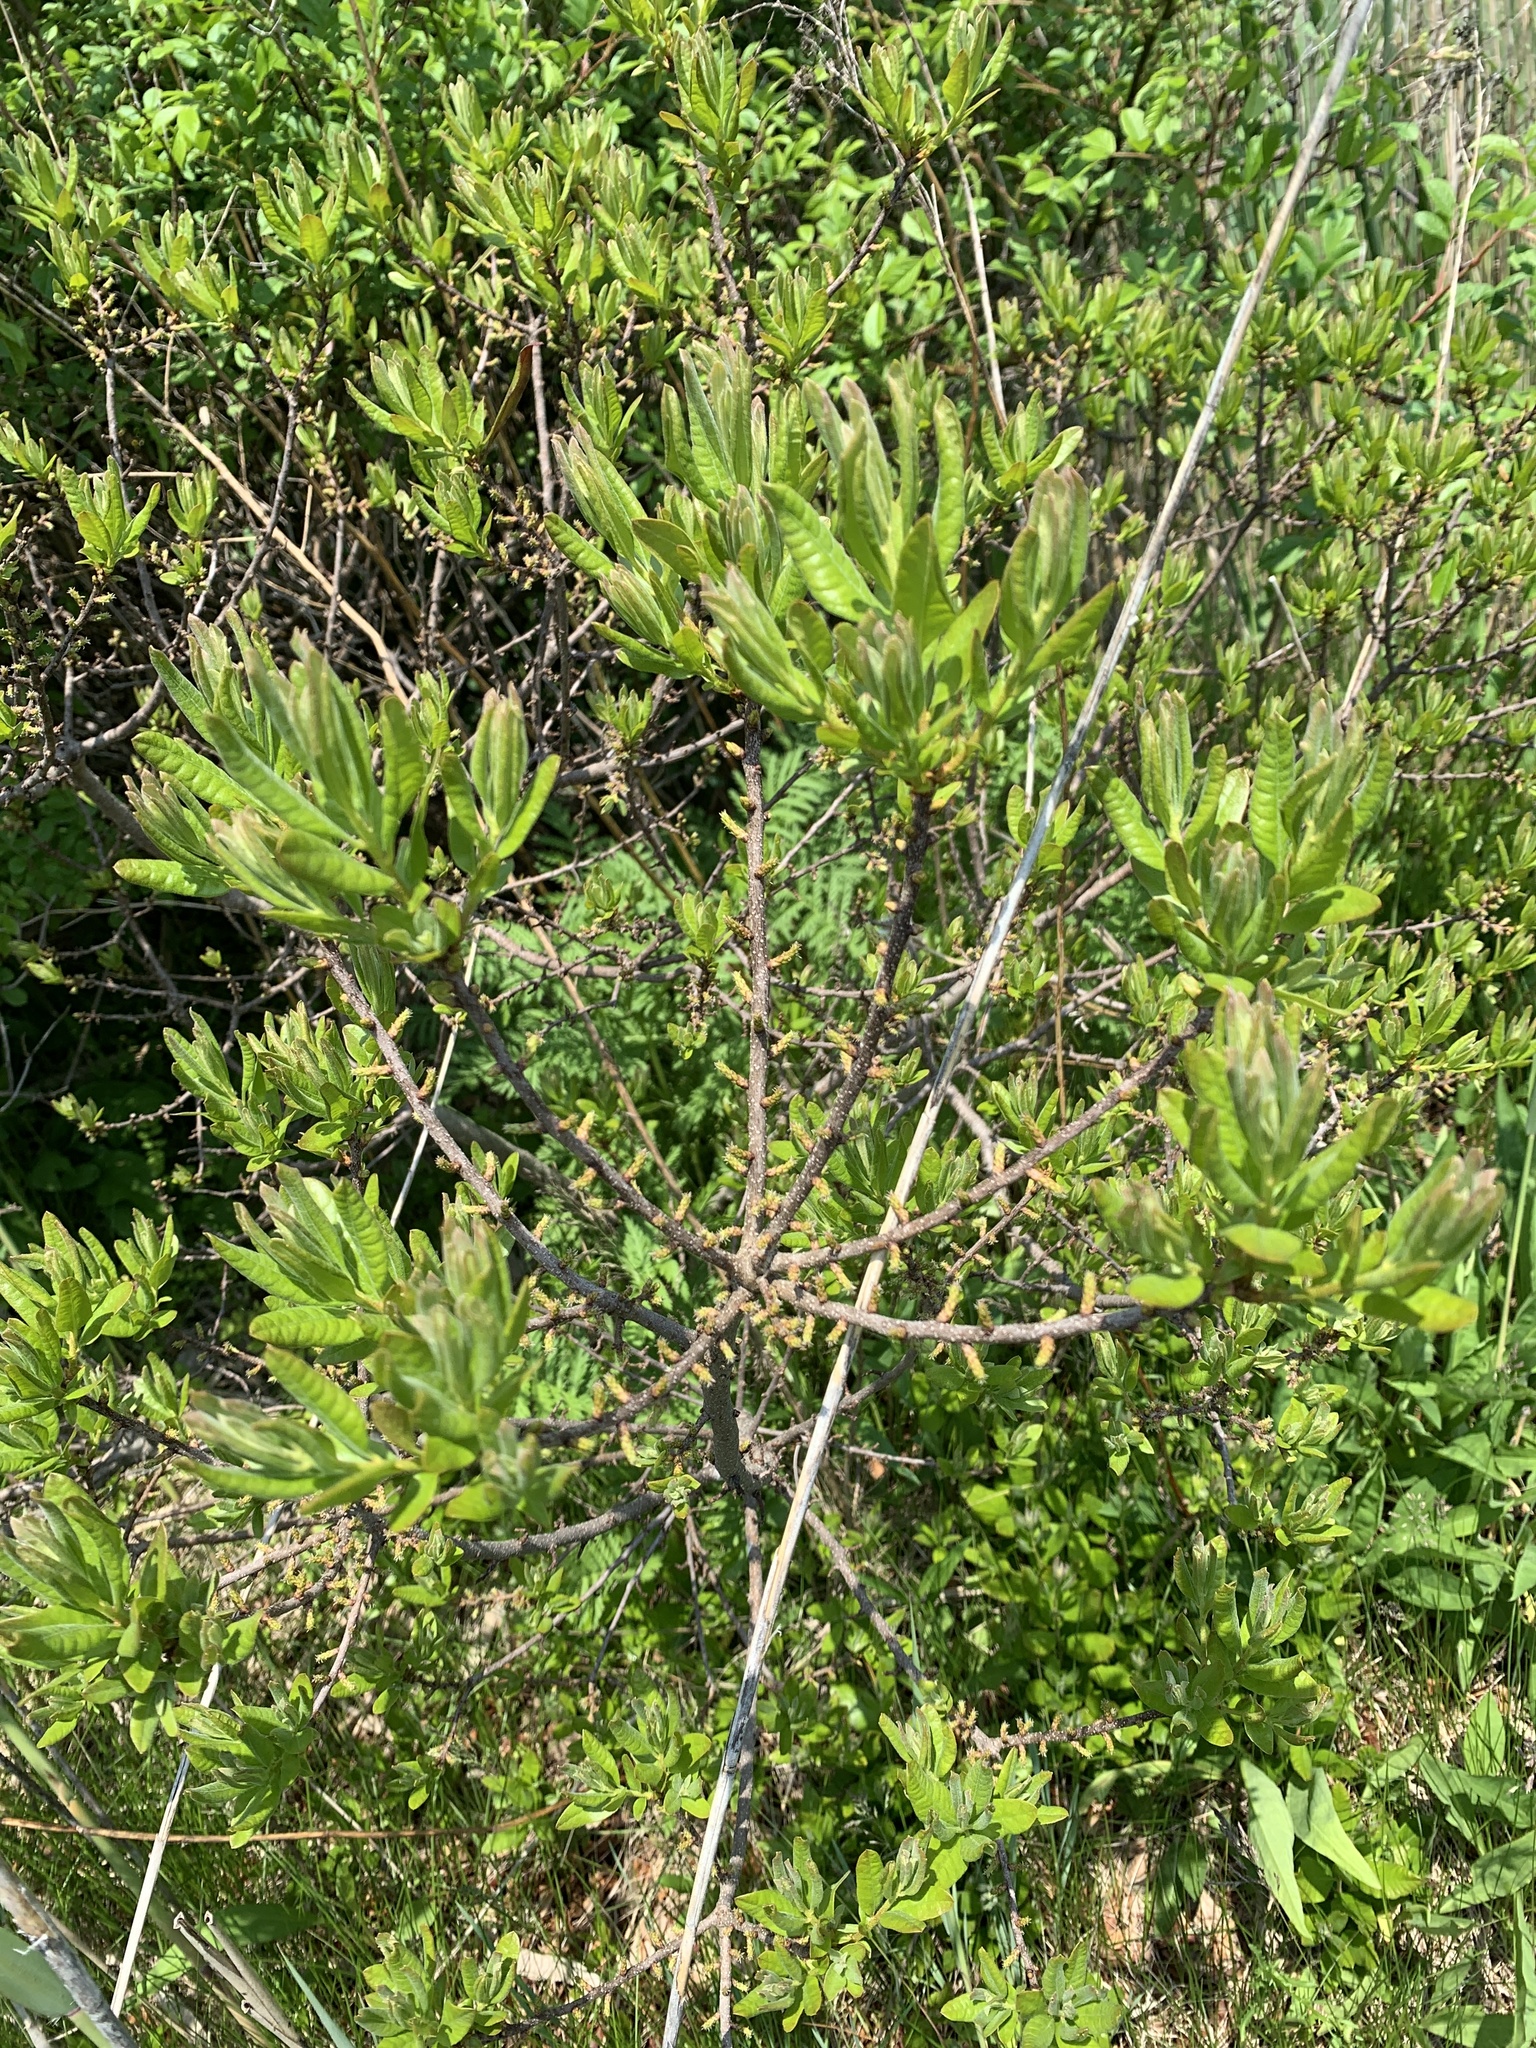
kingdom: Plantae
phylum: Tracheophyta
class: Magnoliopsida
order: Fagales
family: Myricaceae
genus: Morella
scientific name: Morella pensylvanica
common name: Northern bayberry
